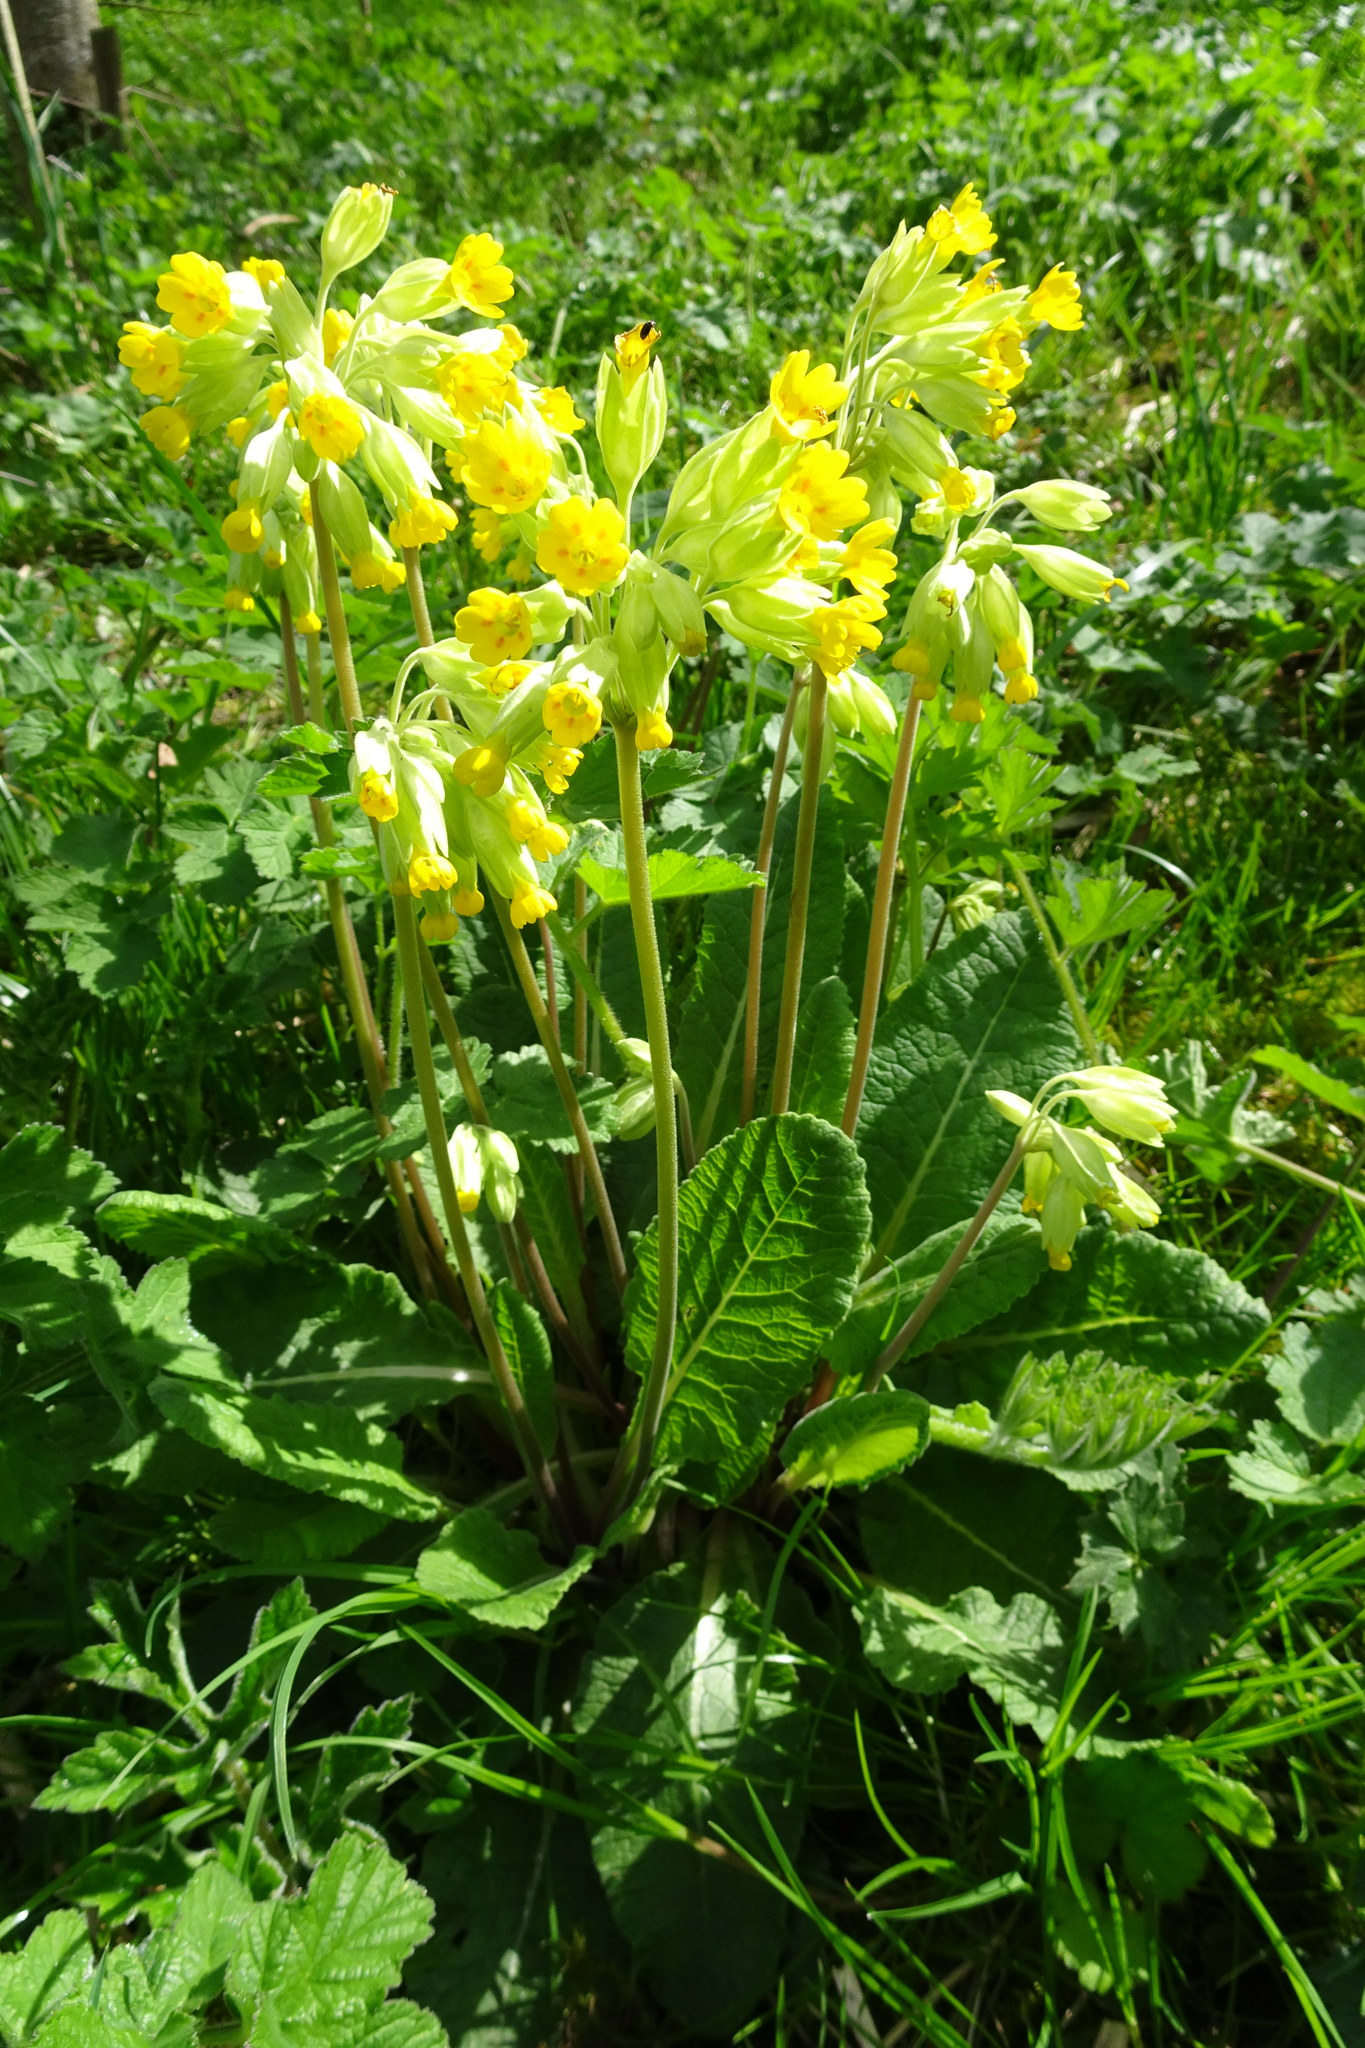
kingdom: Plantae
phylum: Tracheophyta
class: Magnoliopsida
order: Ericales
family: Primulaceae
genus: Primula
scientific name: Primula veris
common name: Cowslip
